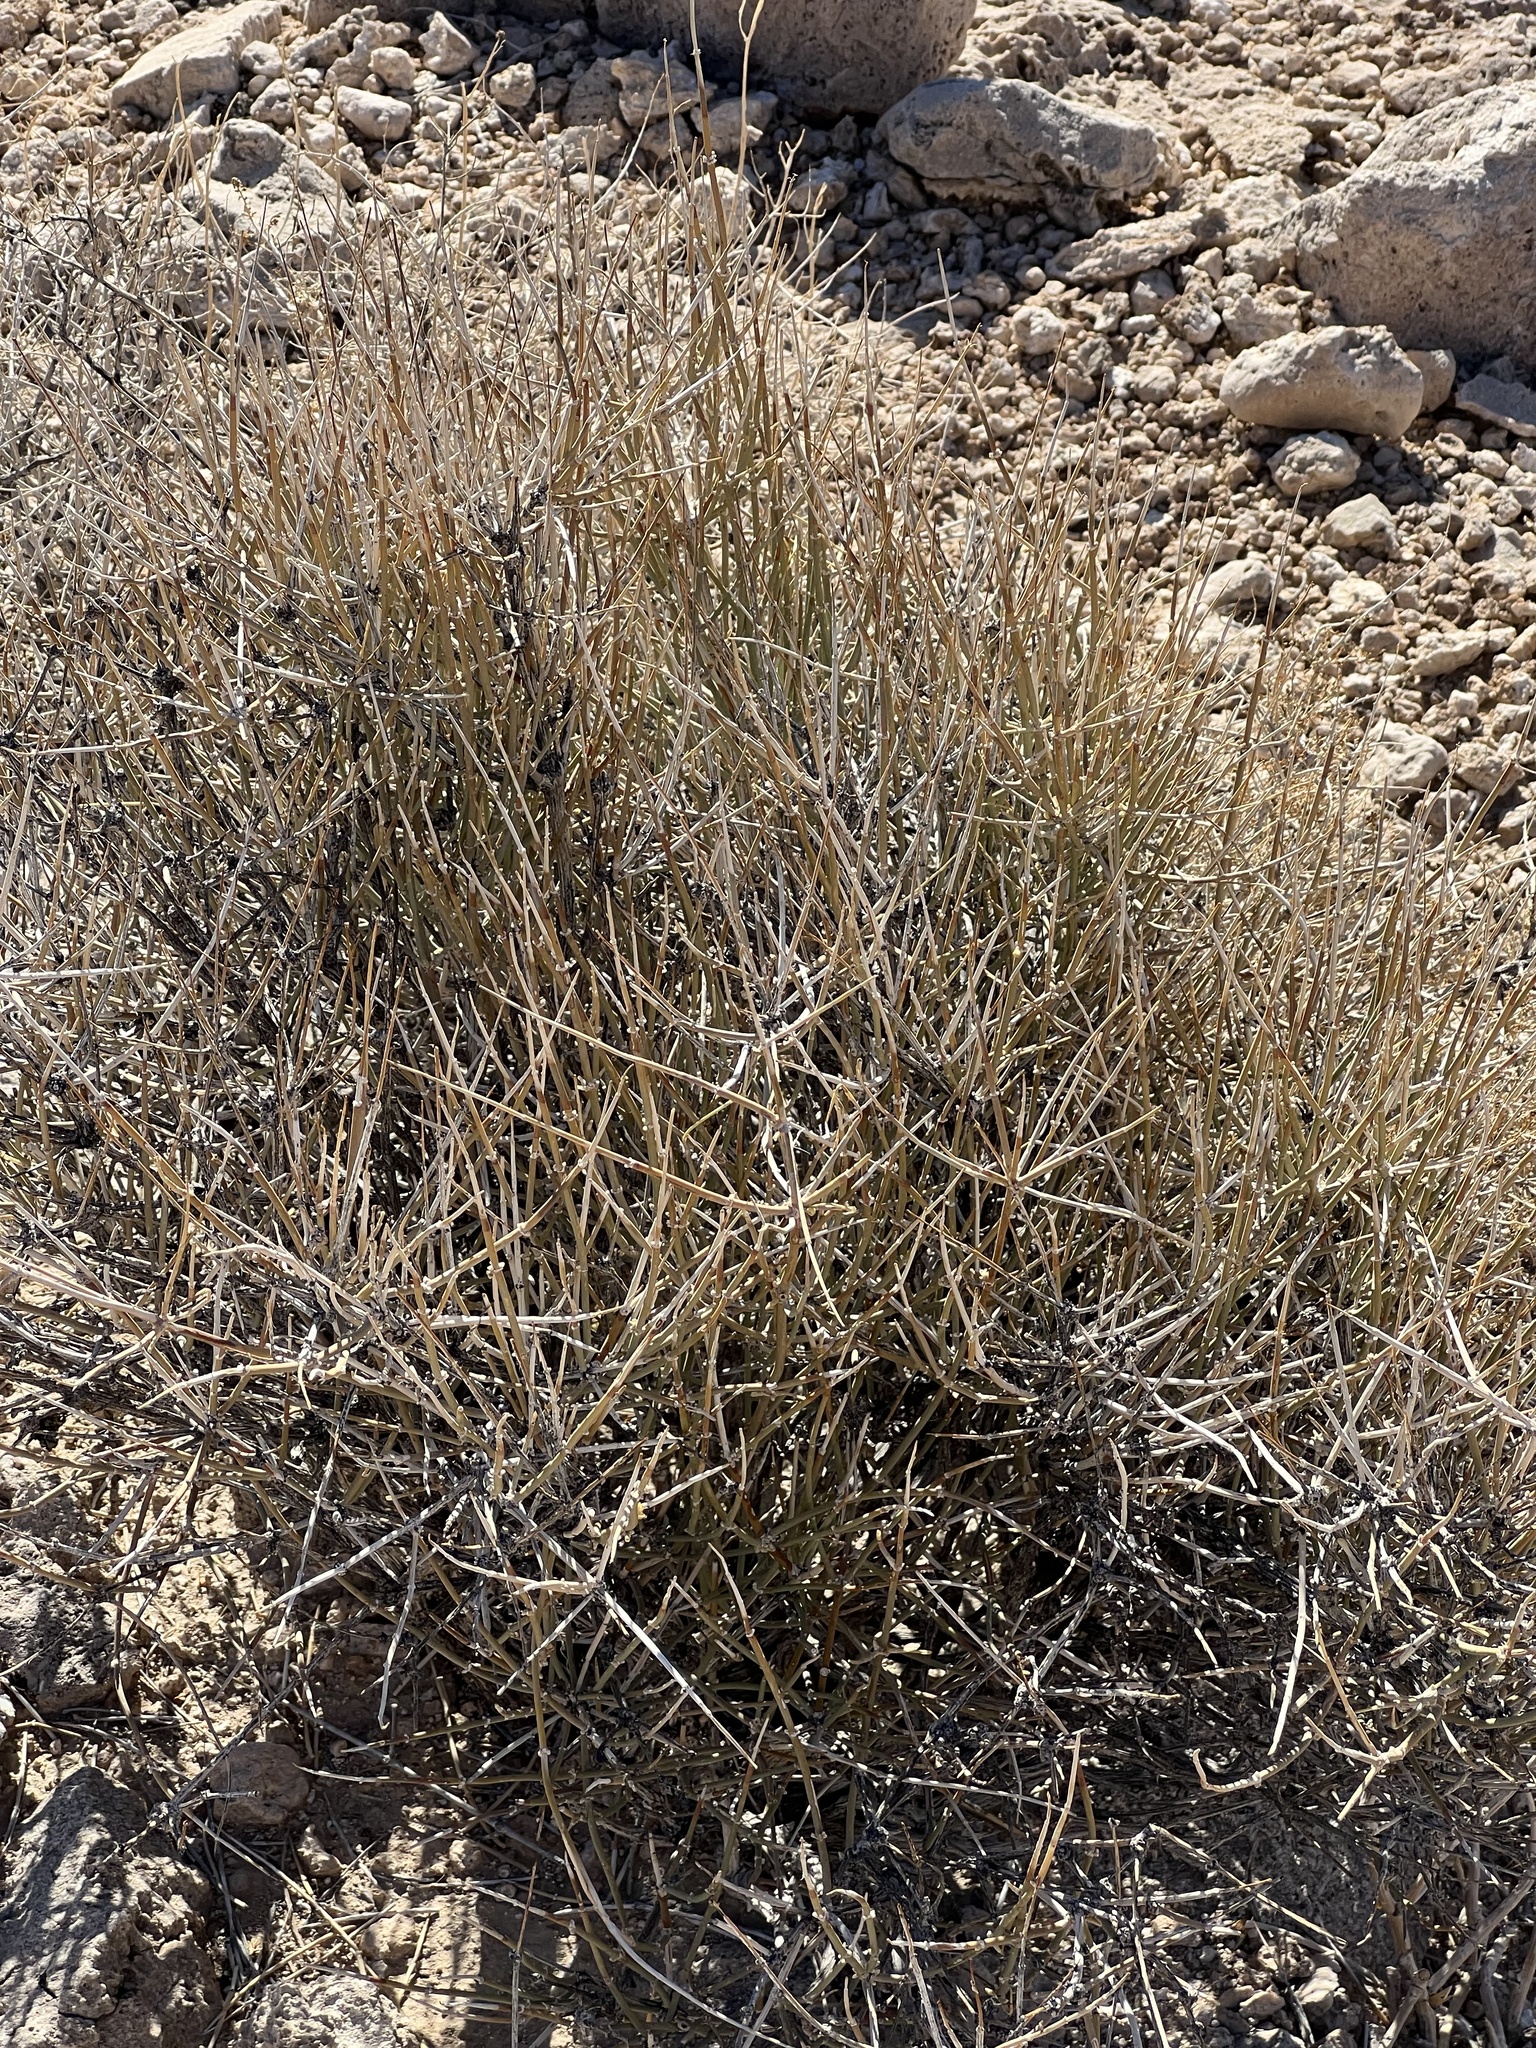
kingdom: Plantae
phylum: Tracheophyta
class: Gnetopsida
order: Ephedrales
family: Ephedraceae
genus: Ephedra
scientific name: Ephedra nevadensis
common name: Gray ephedra
